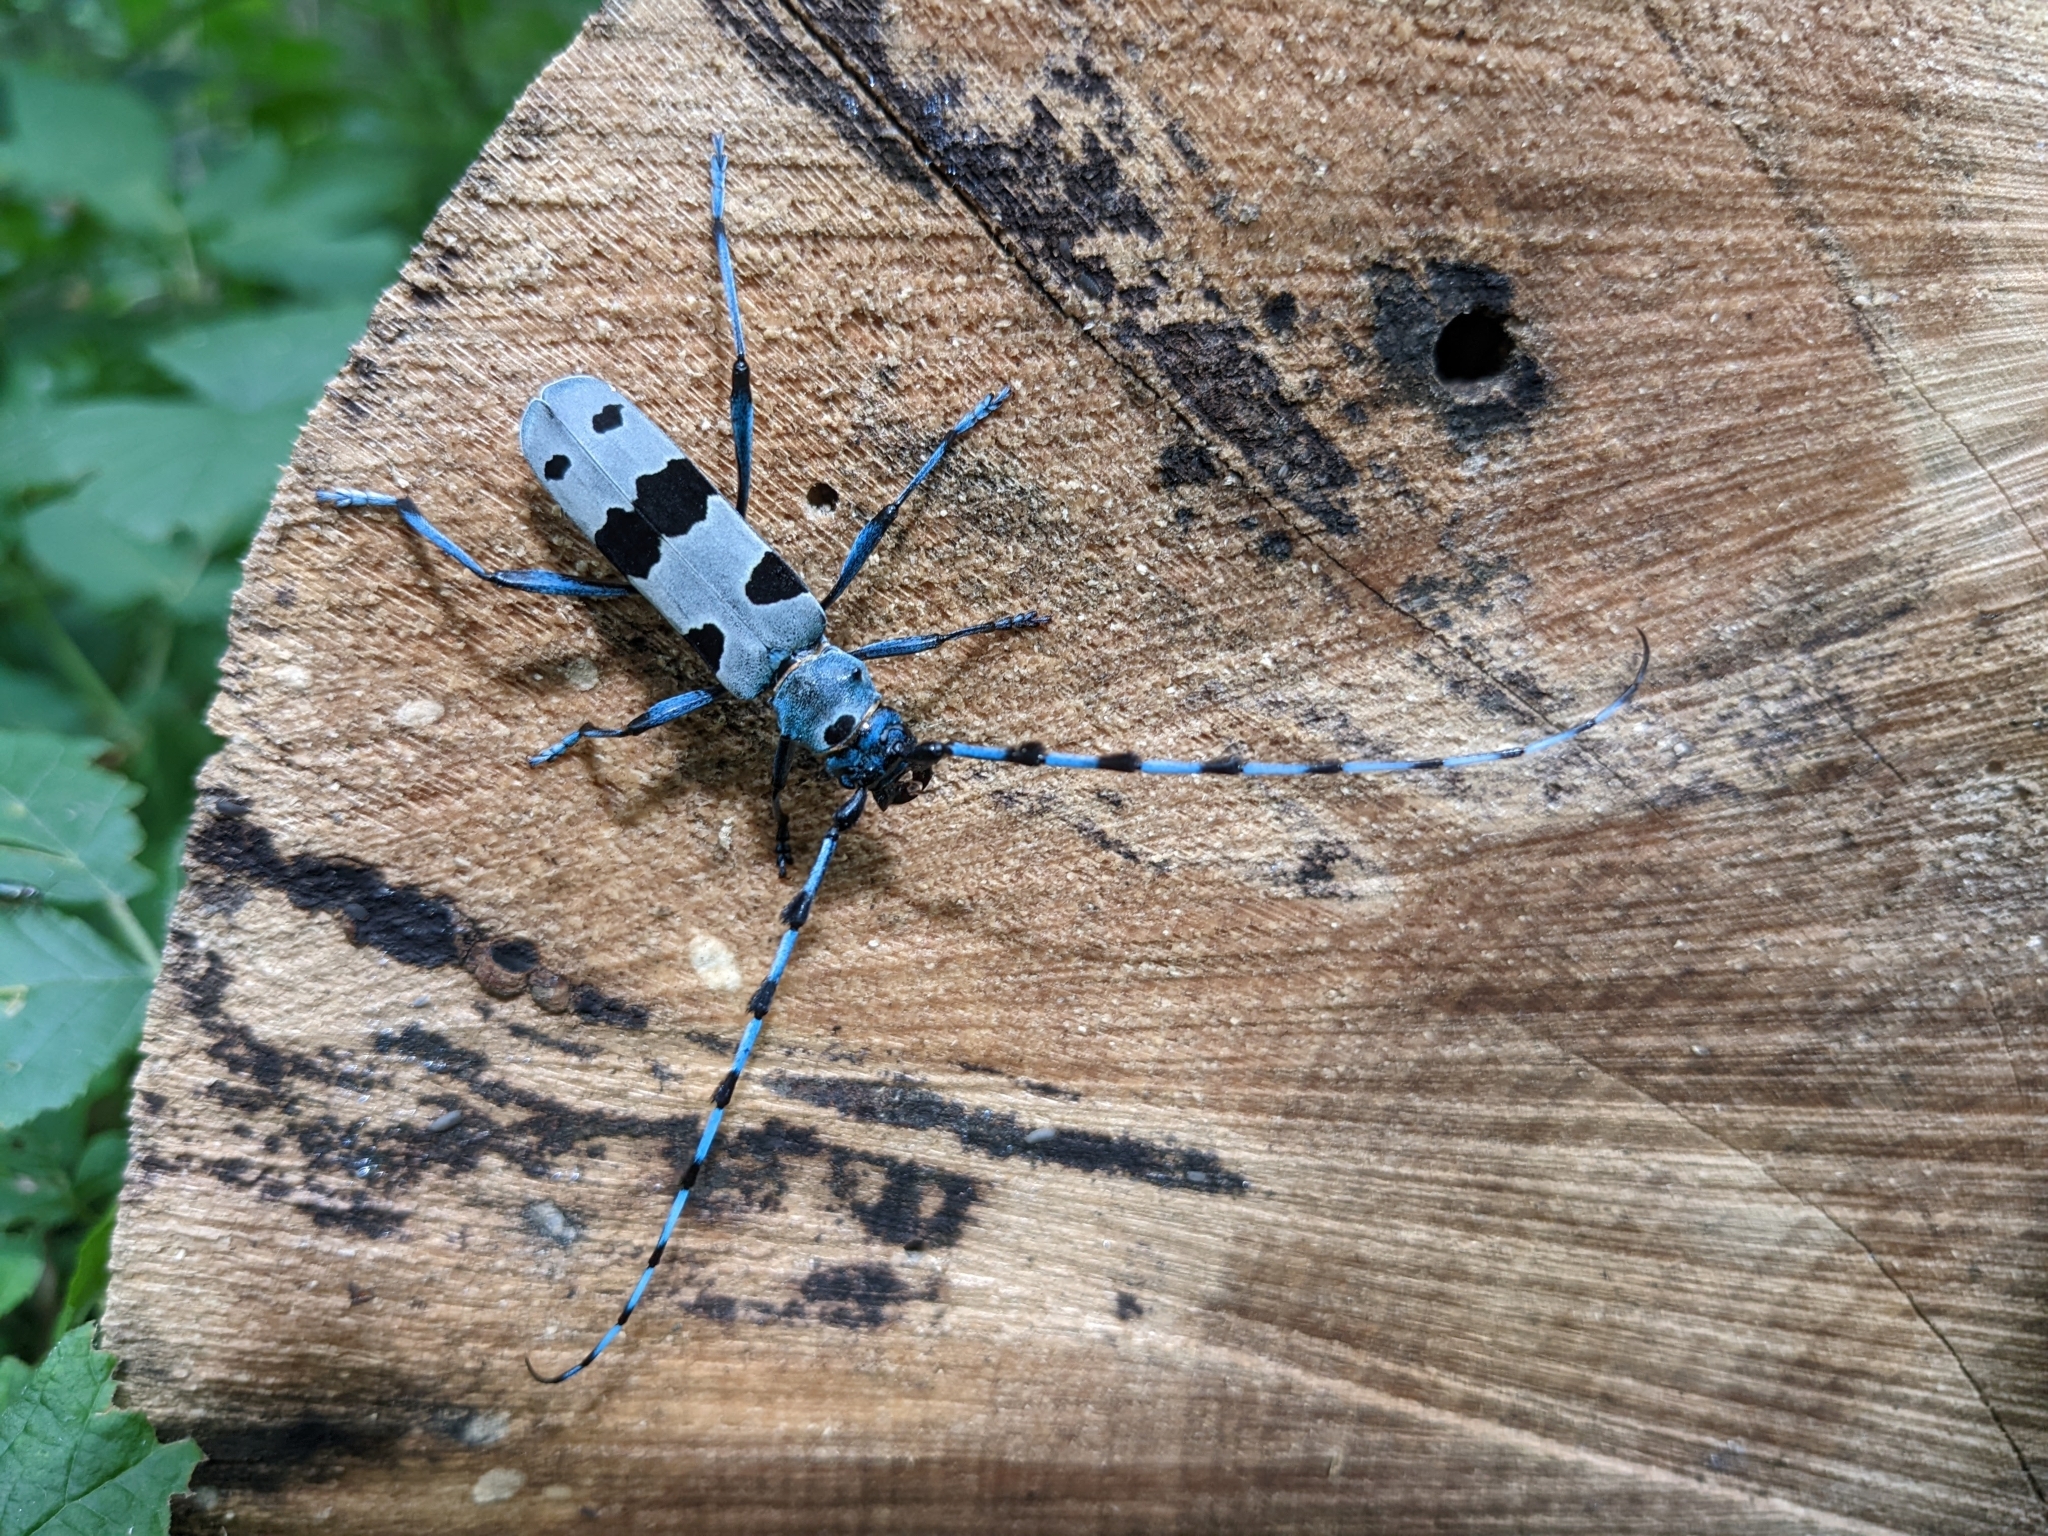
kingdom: Animalia
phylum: Arthropoda
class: Insecta
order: Coleoptera
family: Cerambycidae
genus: Rosalia
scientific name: Rosalia alpina
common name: Rosalia longicorn
